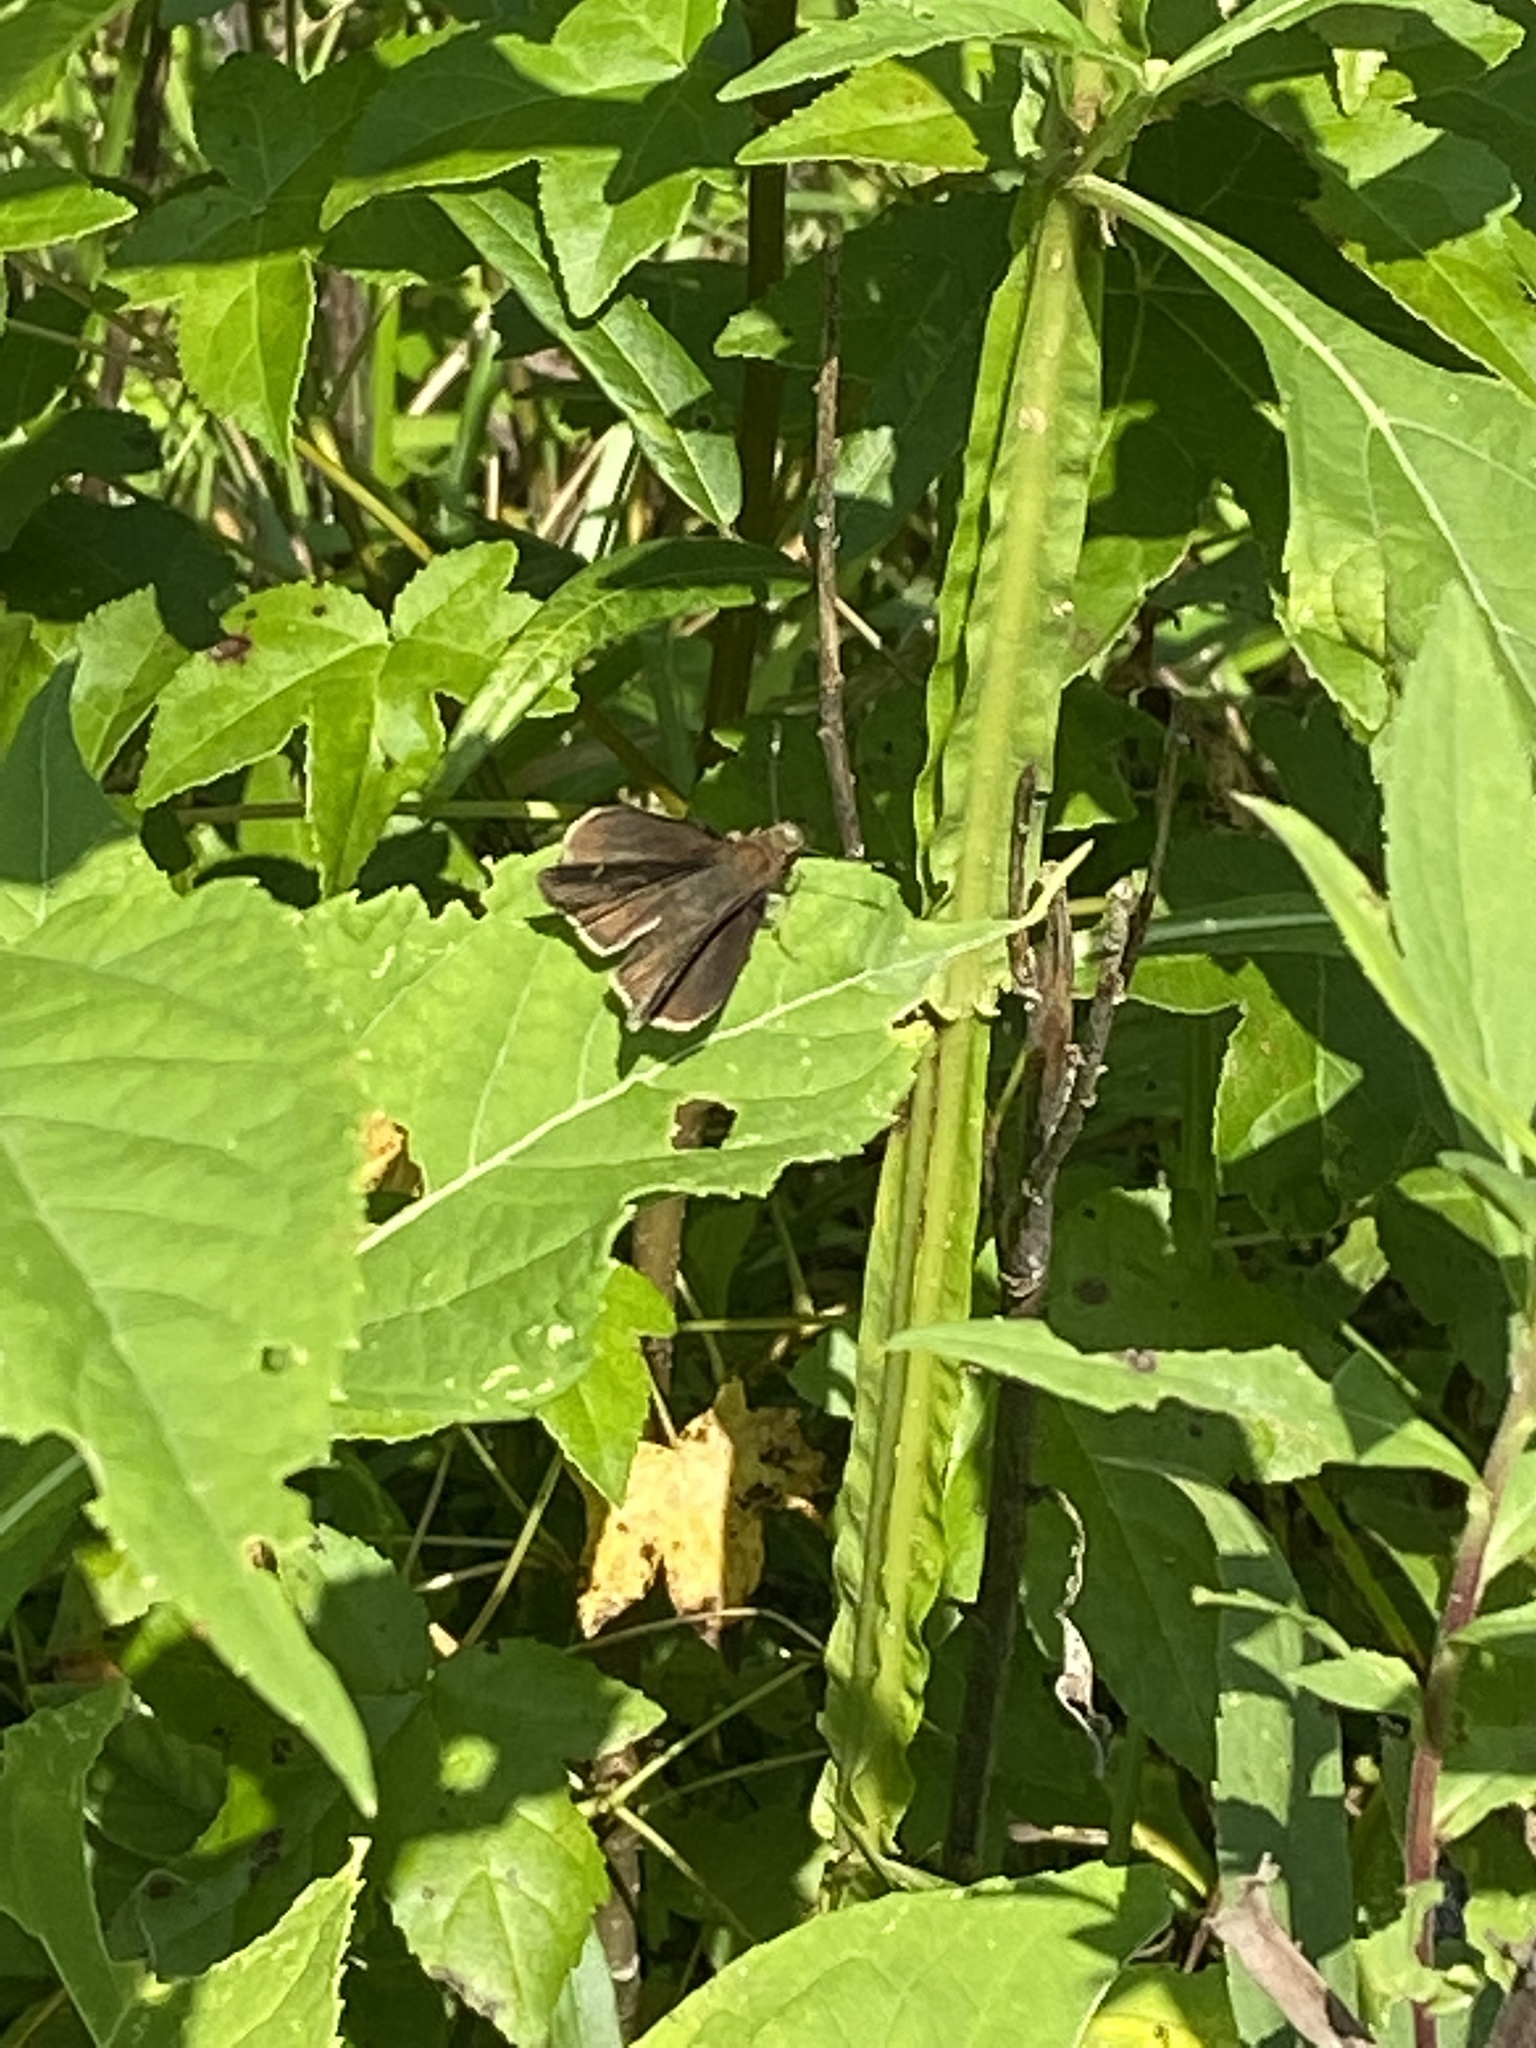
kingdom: Animalia
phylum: Arthropoda
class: Insecta
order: Lepidoptera
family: Hesperiidae
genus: Lerema
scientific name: Lerema accius
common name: Clouded skipper
